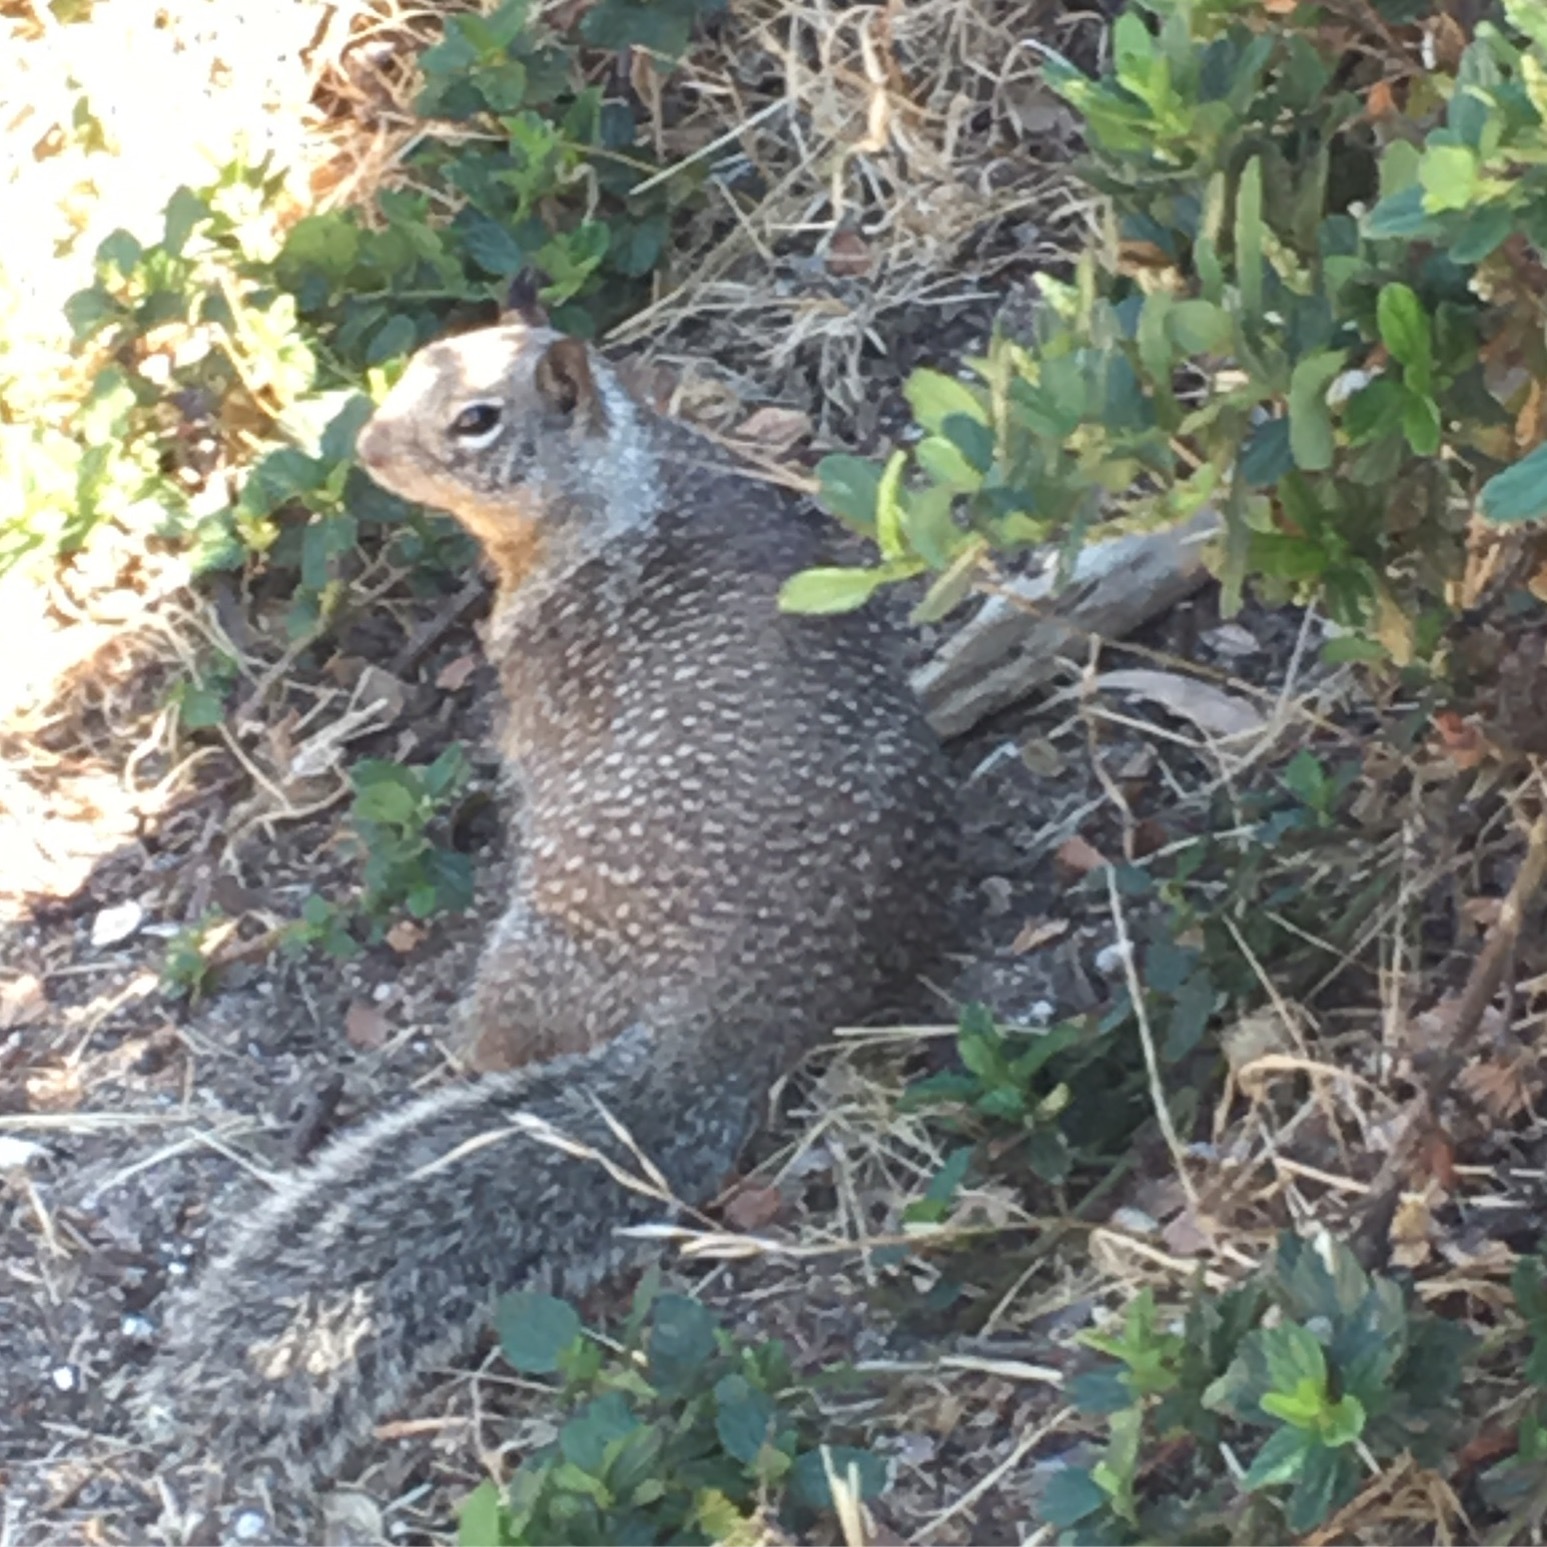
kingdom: Animalia
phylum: Chordata
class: Mammalia
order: Rodentia
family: Sciuridae
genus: Otospermophilus
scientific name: Otospermophilus beecheyi
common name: California ground squirrel
